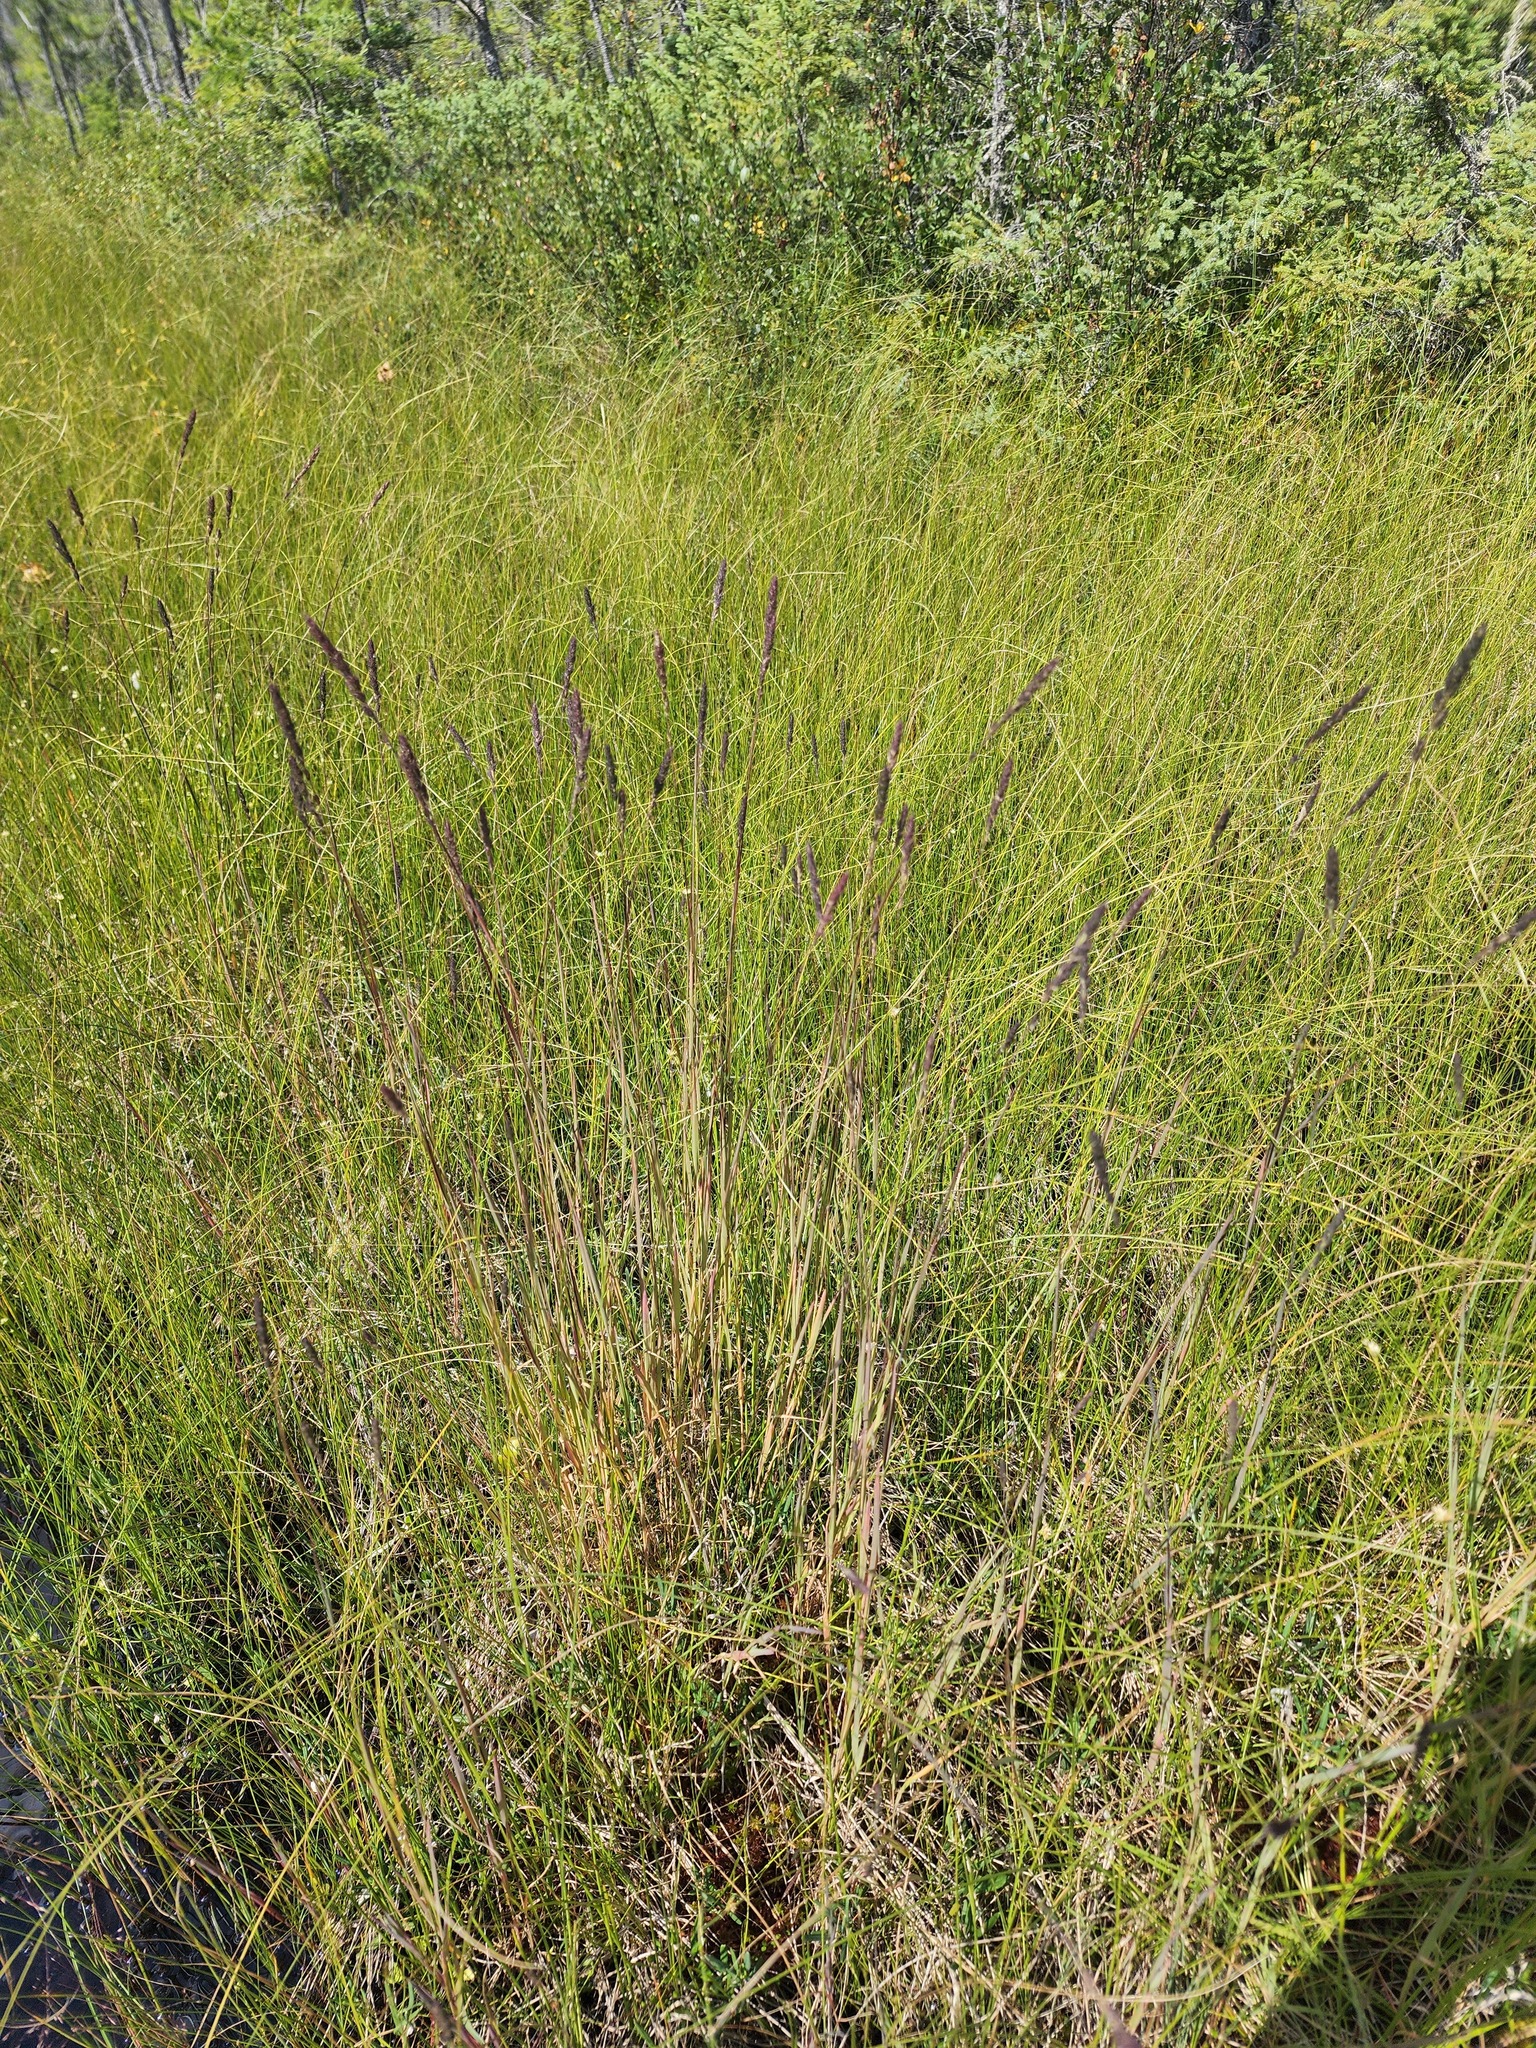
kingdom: Plantae
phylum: Tracheophyta
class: Liliopsida
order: Poales
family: Poaceae
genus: Muhlenbergia
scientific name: Muhlenbergia glomerata
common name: Bog muhly
